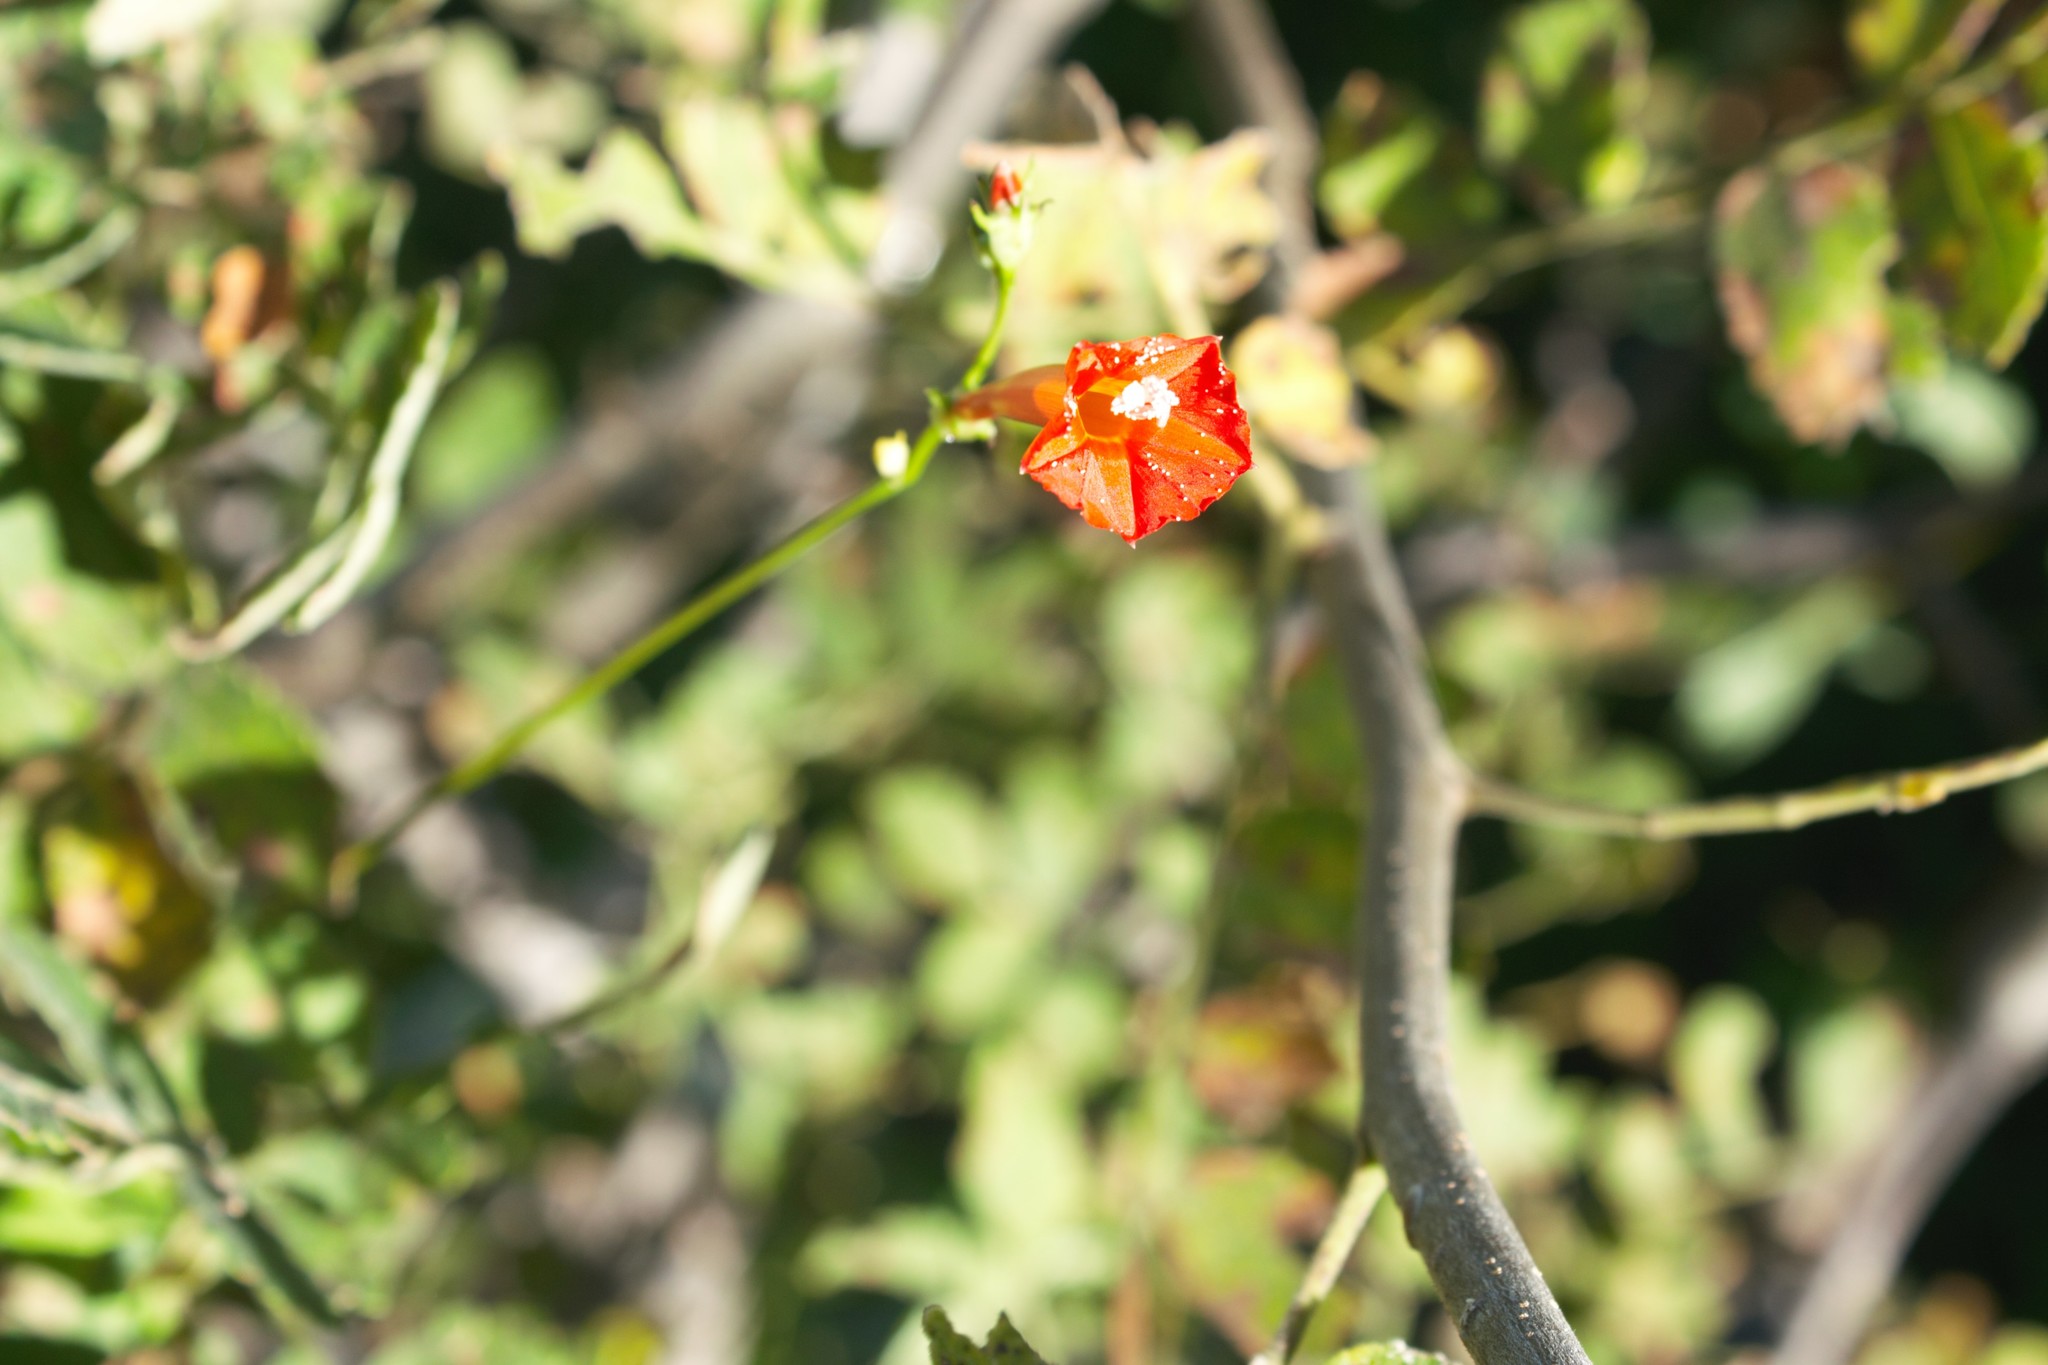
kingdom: Plantae
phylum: Tracheophyta
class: Magnoliopsida
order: Solanales
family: Convolvulaceae
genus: Ipomoea
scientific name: Ipomoea hederifolia
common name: Ivy-leaf morning-glory
